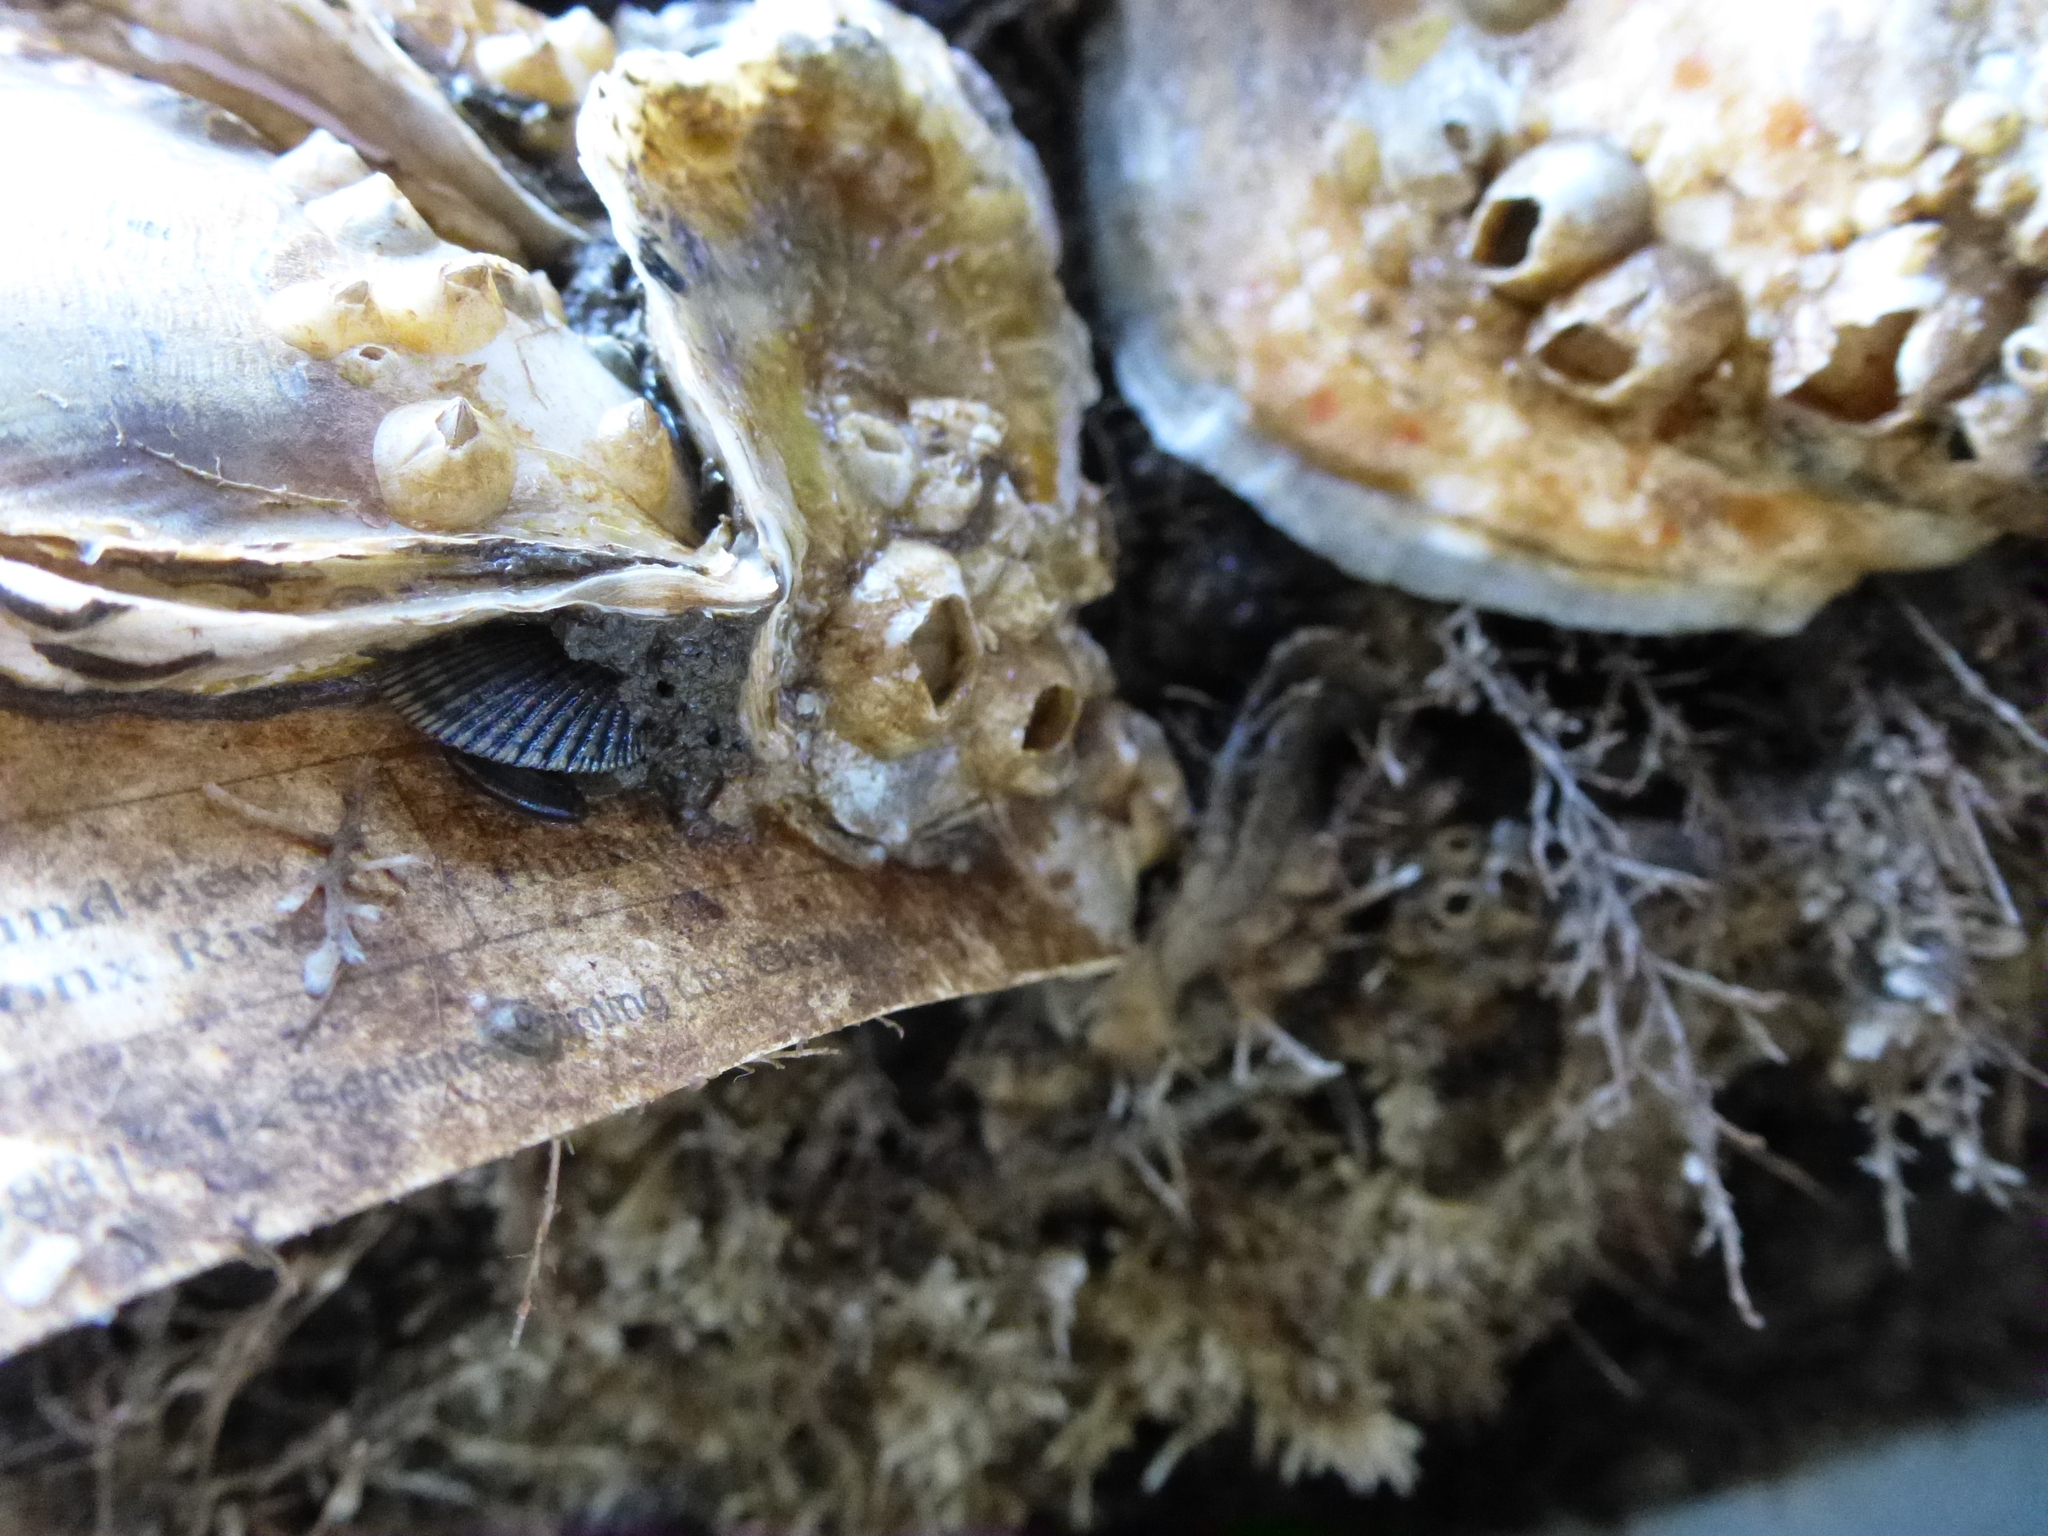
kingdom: Animalia
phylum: Mollusca
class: Bivalvia
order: Mytilida
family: Mytilidae
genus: Geukensia
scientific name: Geukensia demissa
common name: Ribbed mussel
